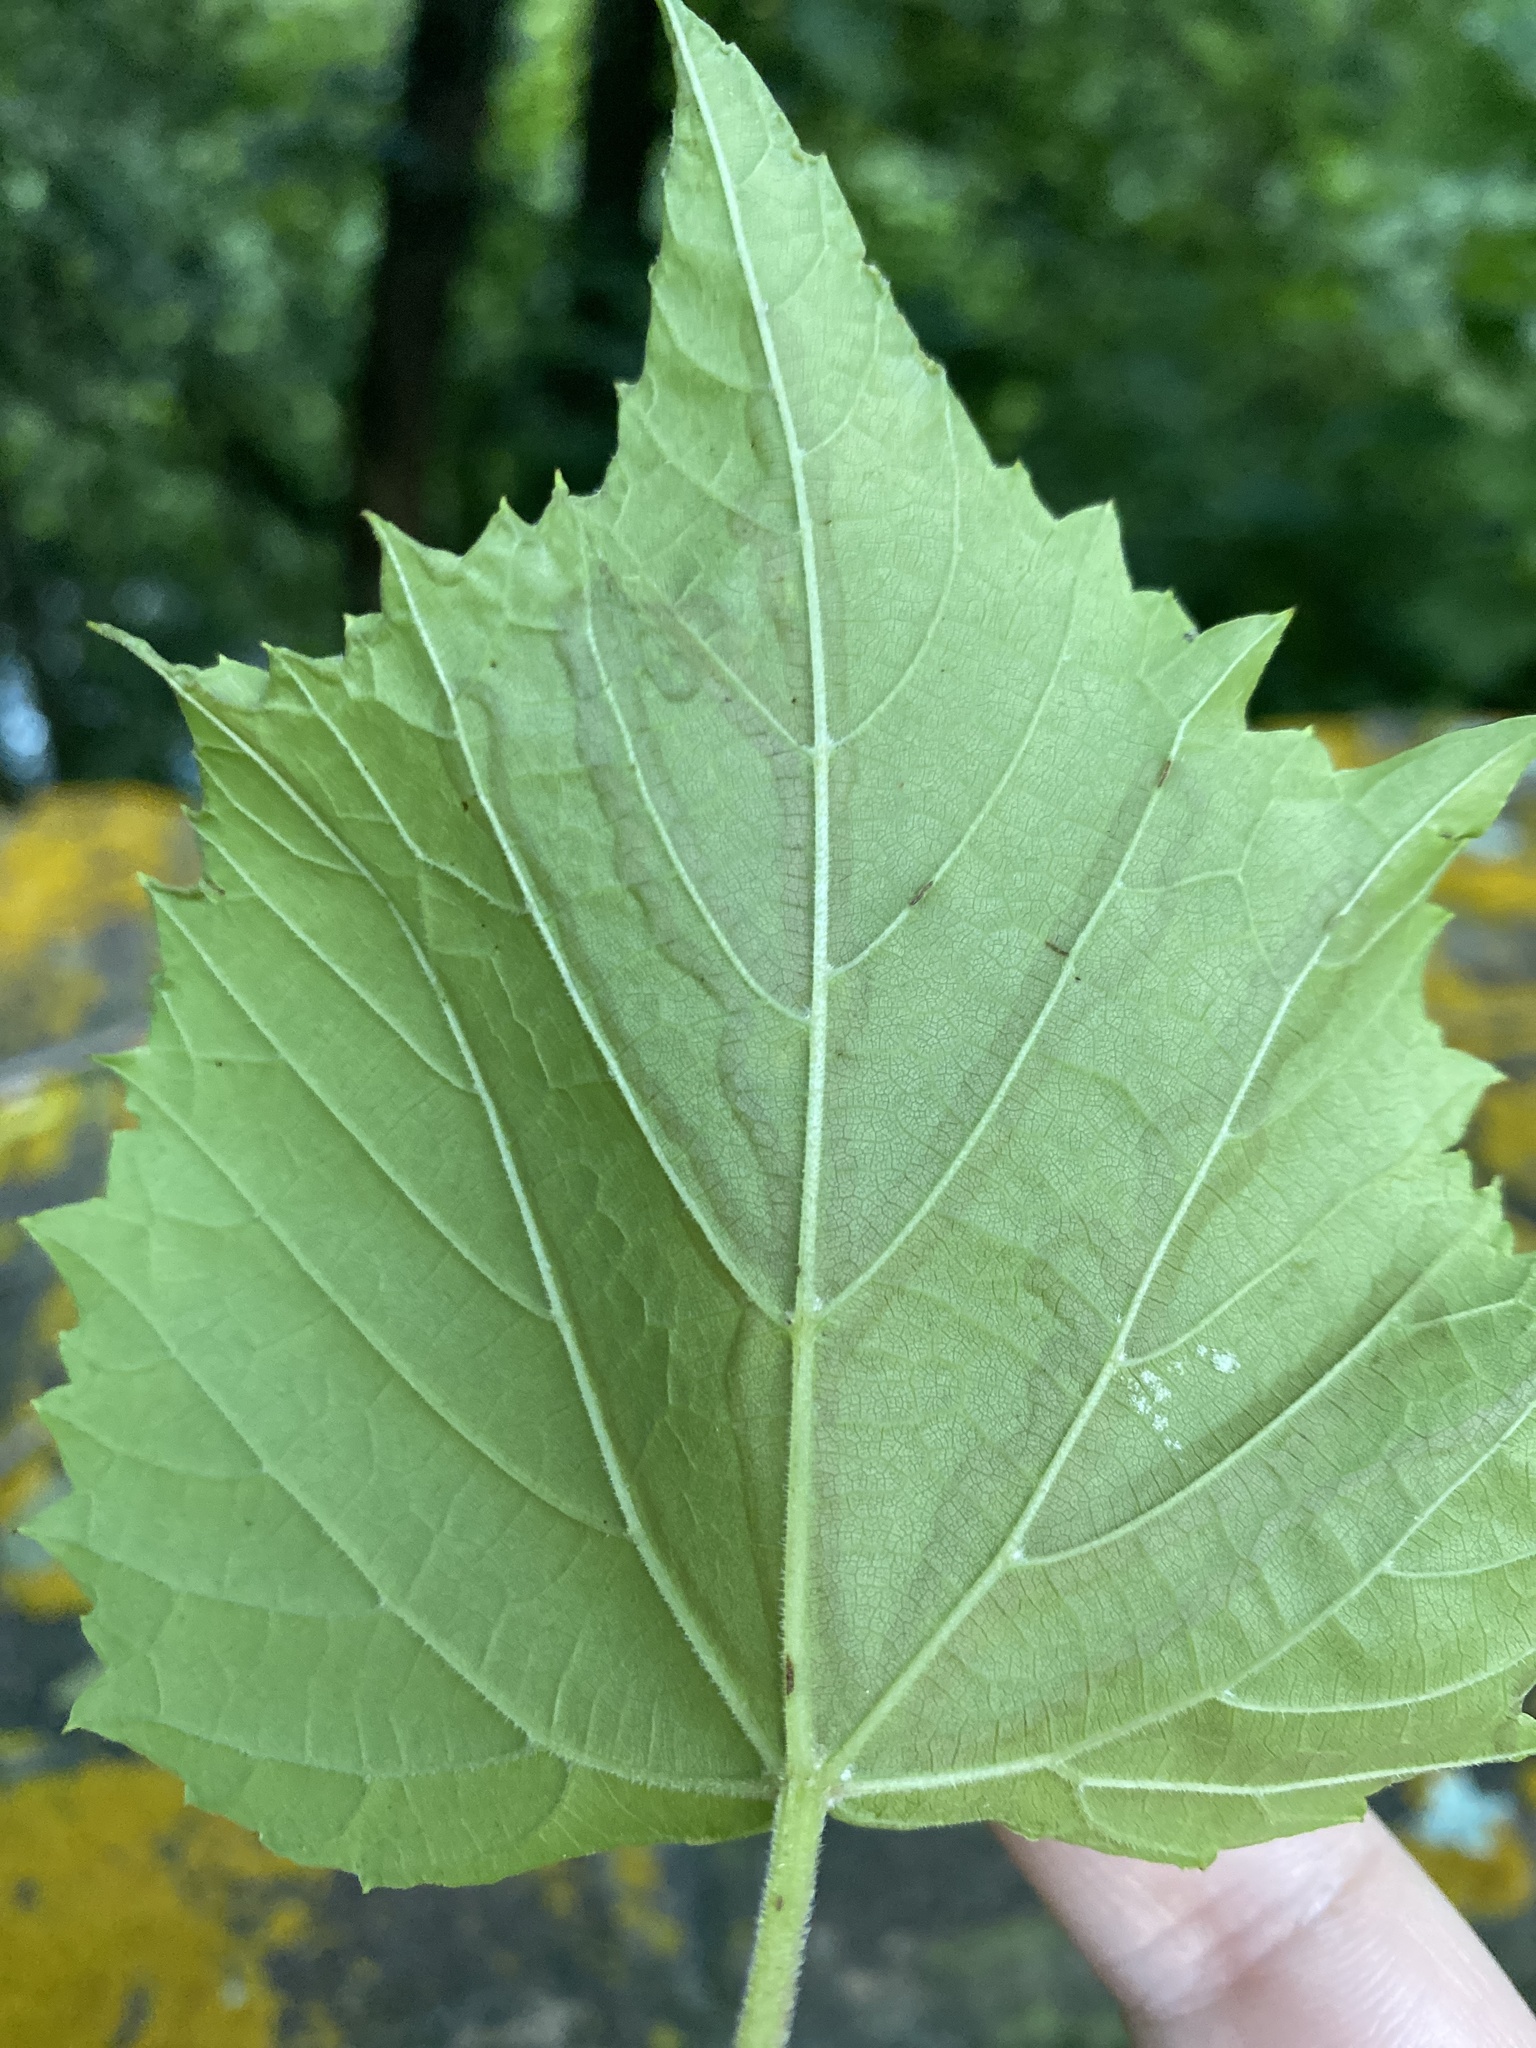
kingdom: Animalia
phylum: Arthropoda
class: Insecta
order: Lepidoptera
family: Gracillariidae
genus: Phyllocnistis
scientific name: Phyllocnistis vitegenella
